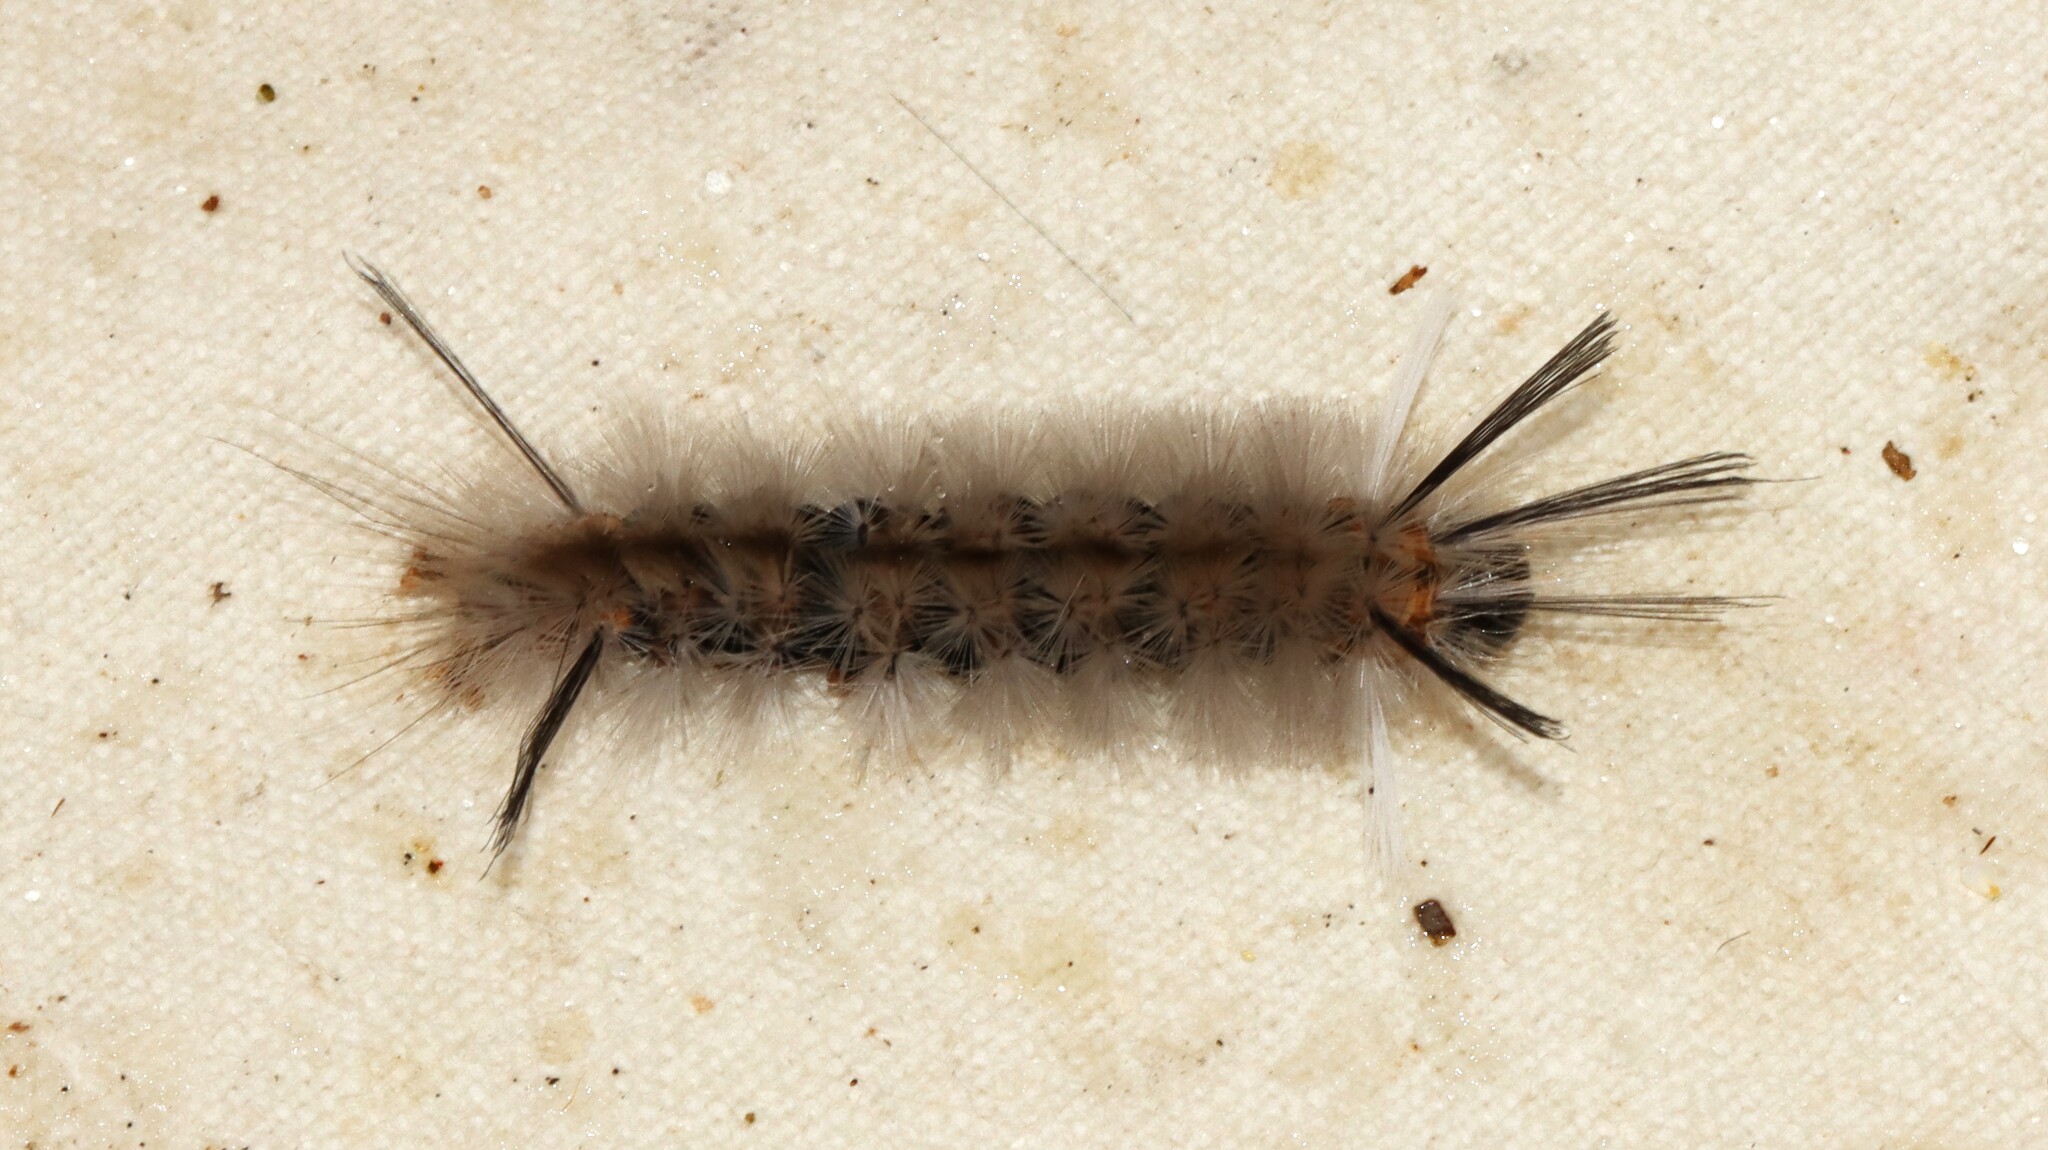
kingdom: Animalia
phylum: Arthropoda
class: Insecta
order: Lepidoptera
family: Erebidae
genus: Halysidota
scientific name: Halysidota tessellaris
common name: Banded tussock moth
